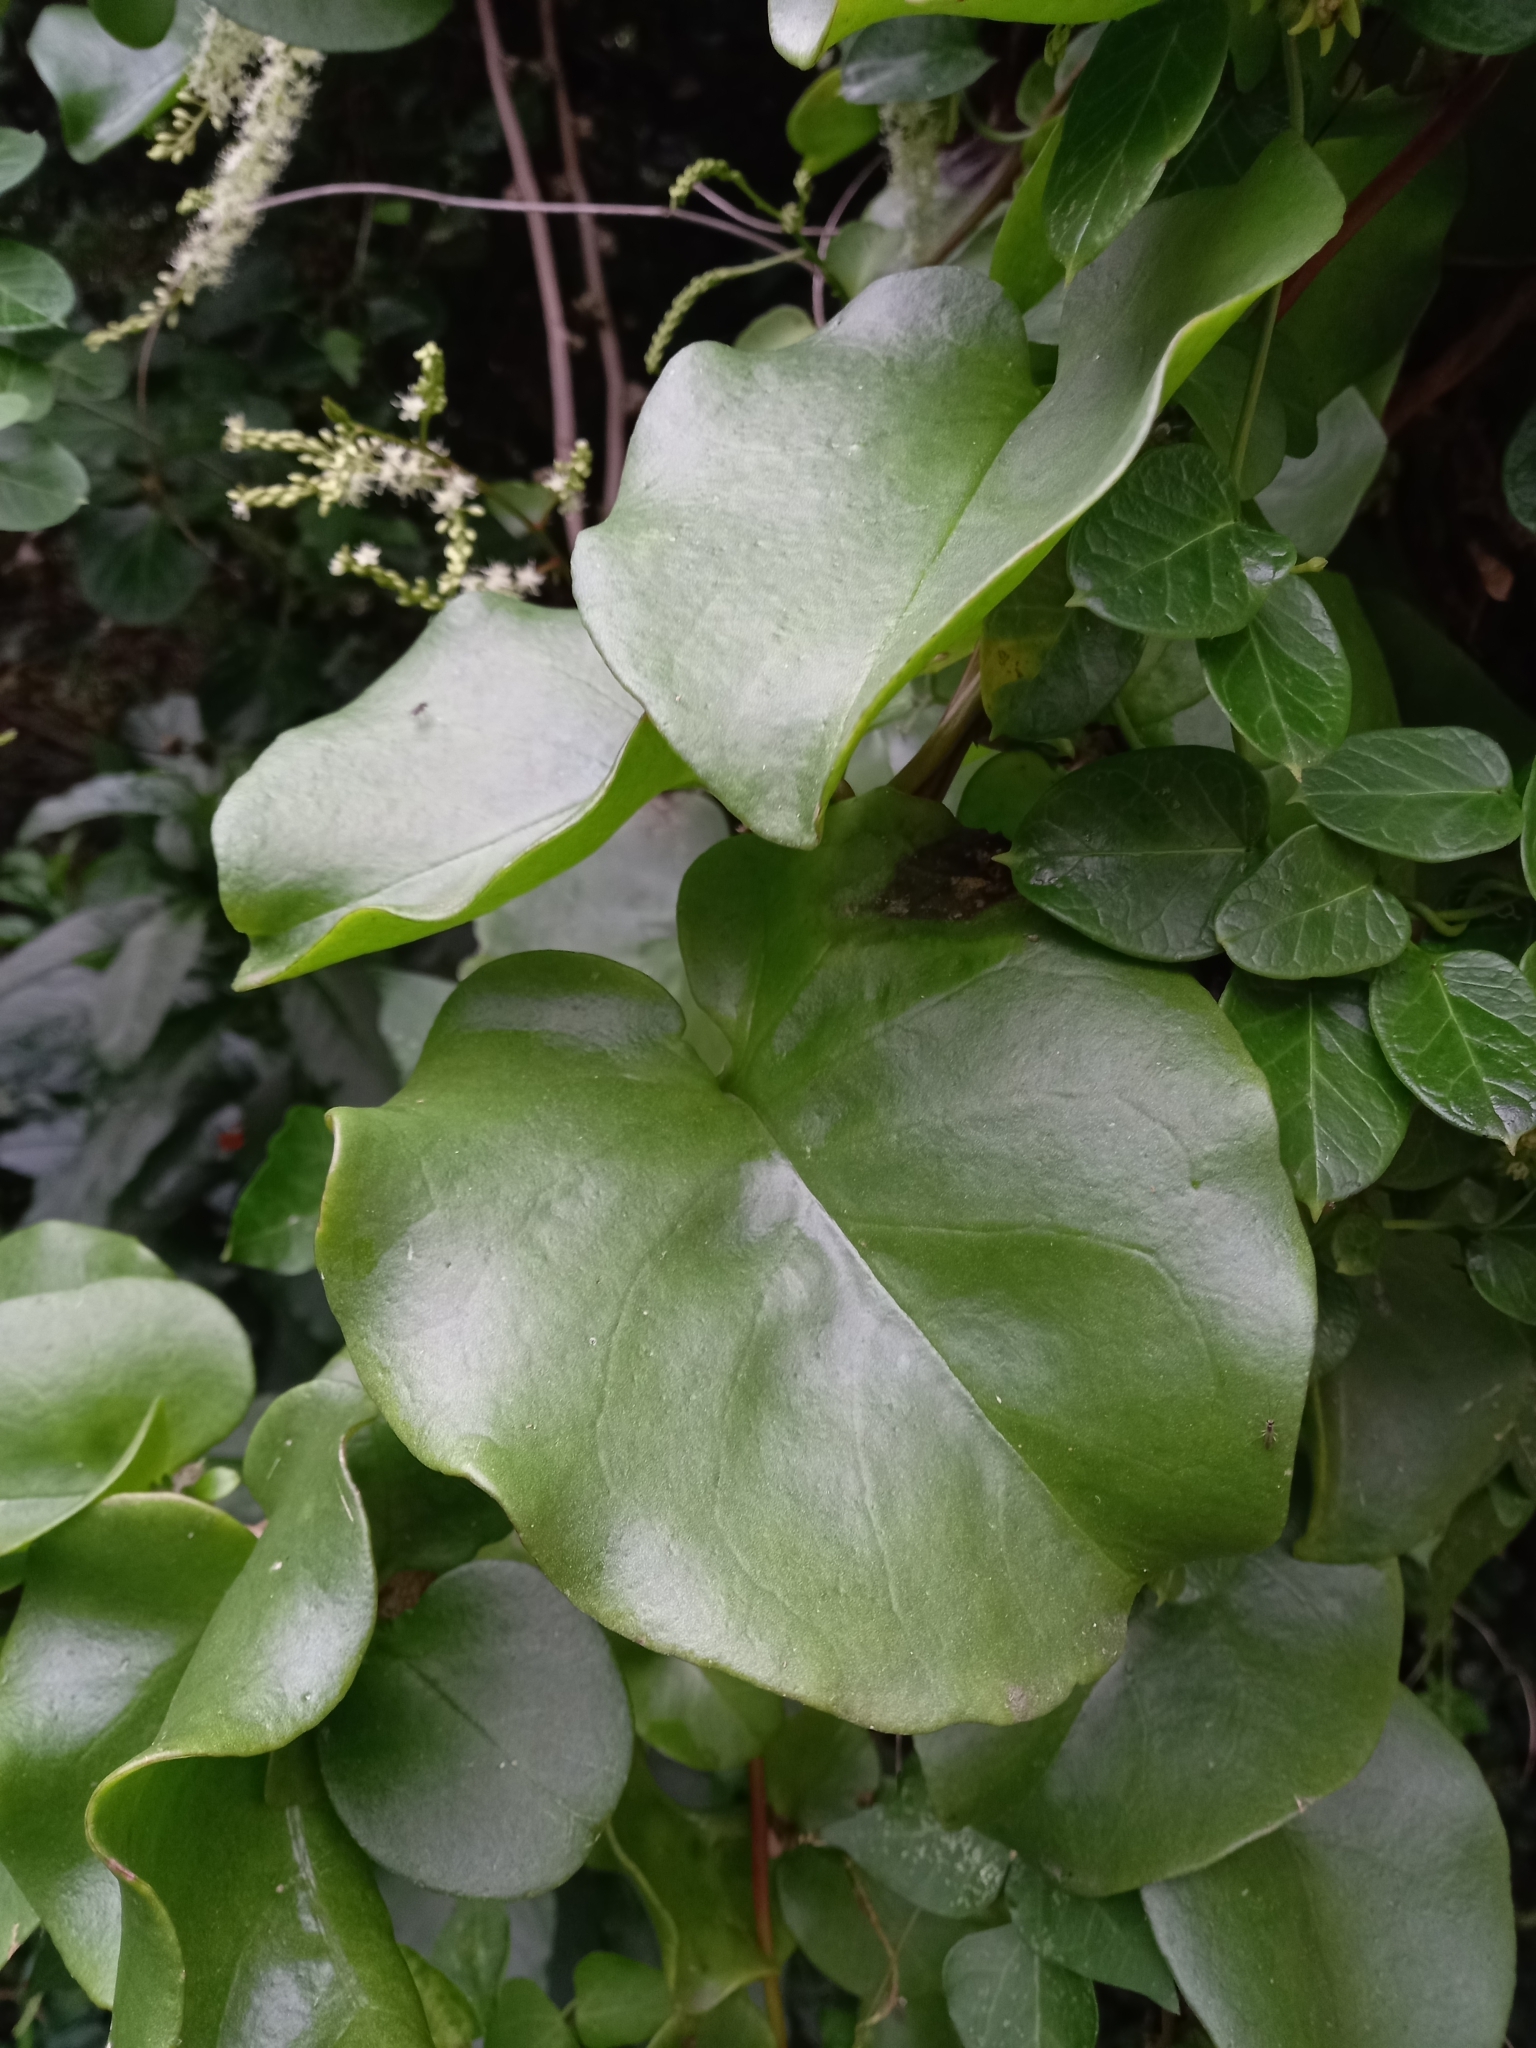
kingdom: Plantae
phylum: Tracheophyta
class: Magnoliopsida
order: Caryophyllales
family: Basellaceae
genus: Anredera
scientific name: Anredera cordifolia
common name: Heartleaf madeiravine
